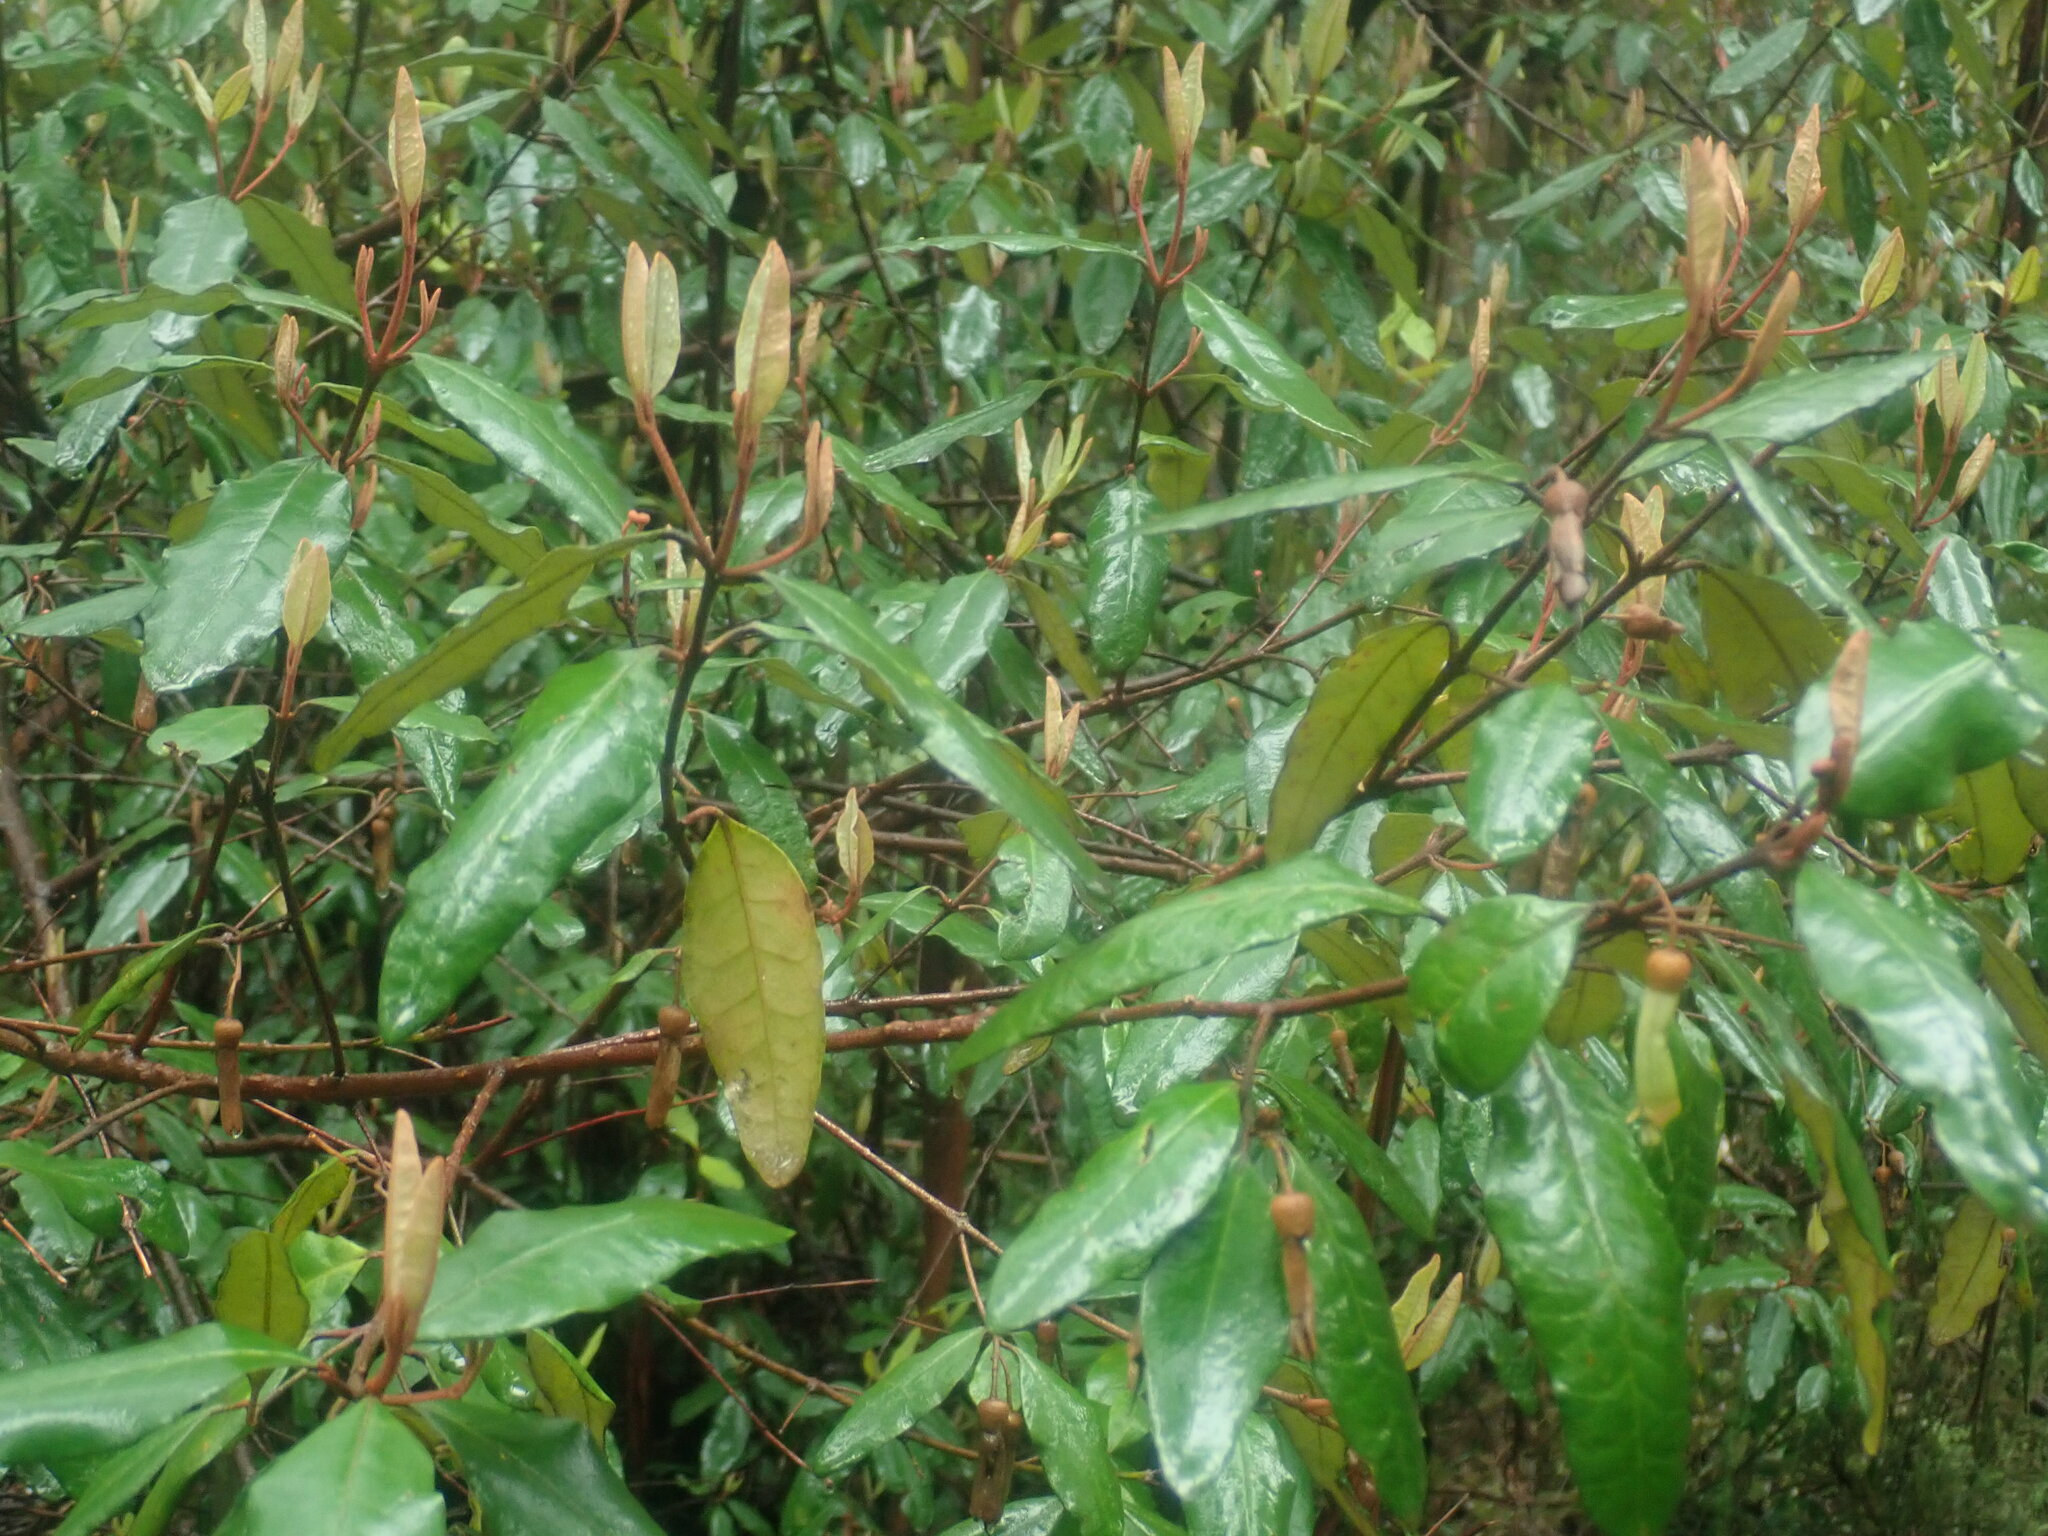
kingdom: Plantae
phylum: Tracheophyta
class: Magnoliopsida
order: Sapindales
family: Rutaceae
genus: Correa
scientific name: Correa lawrenceana
